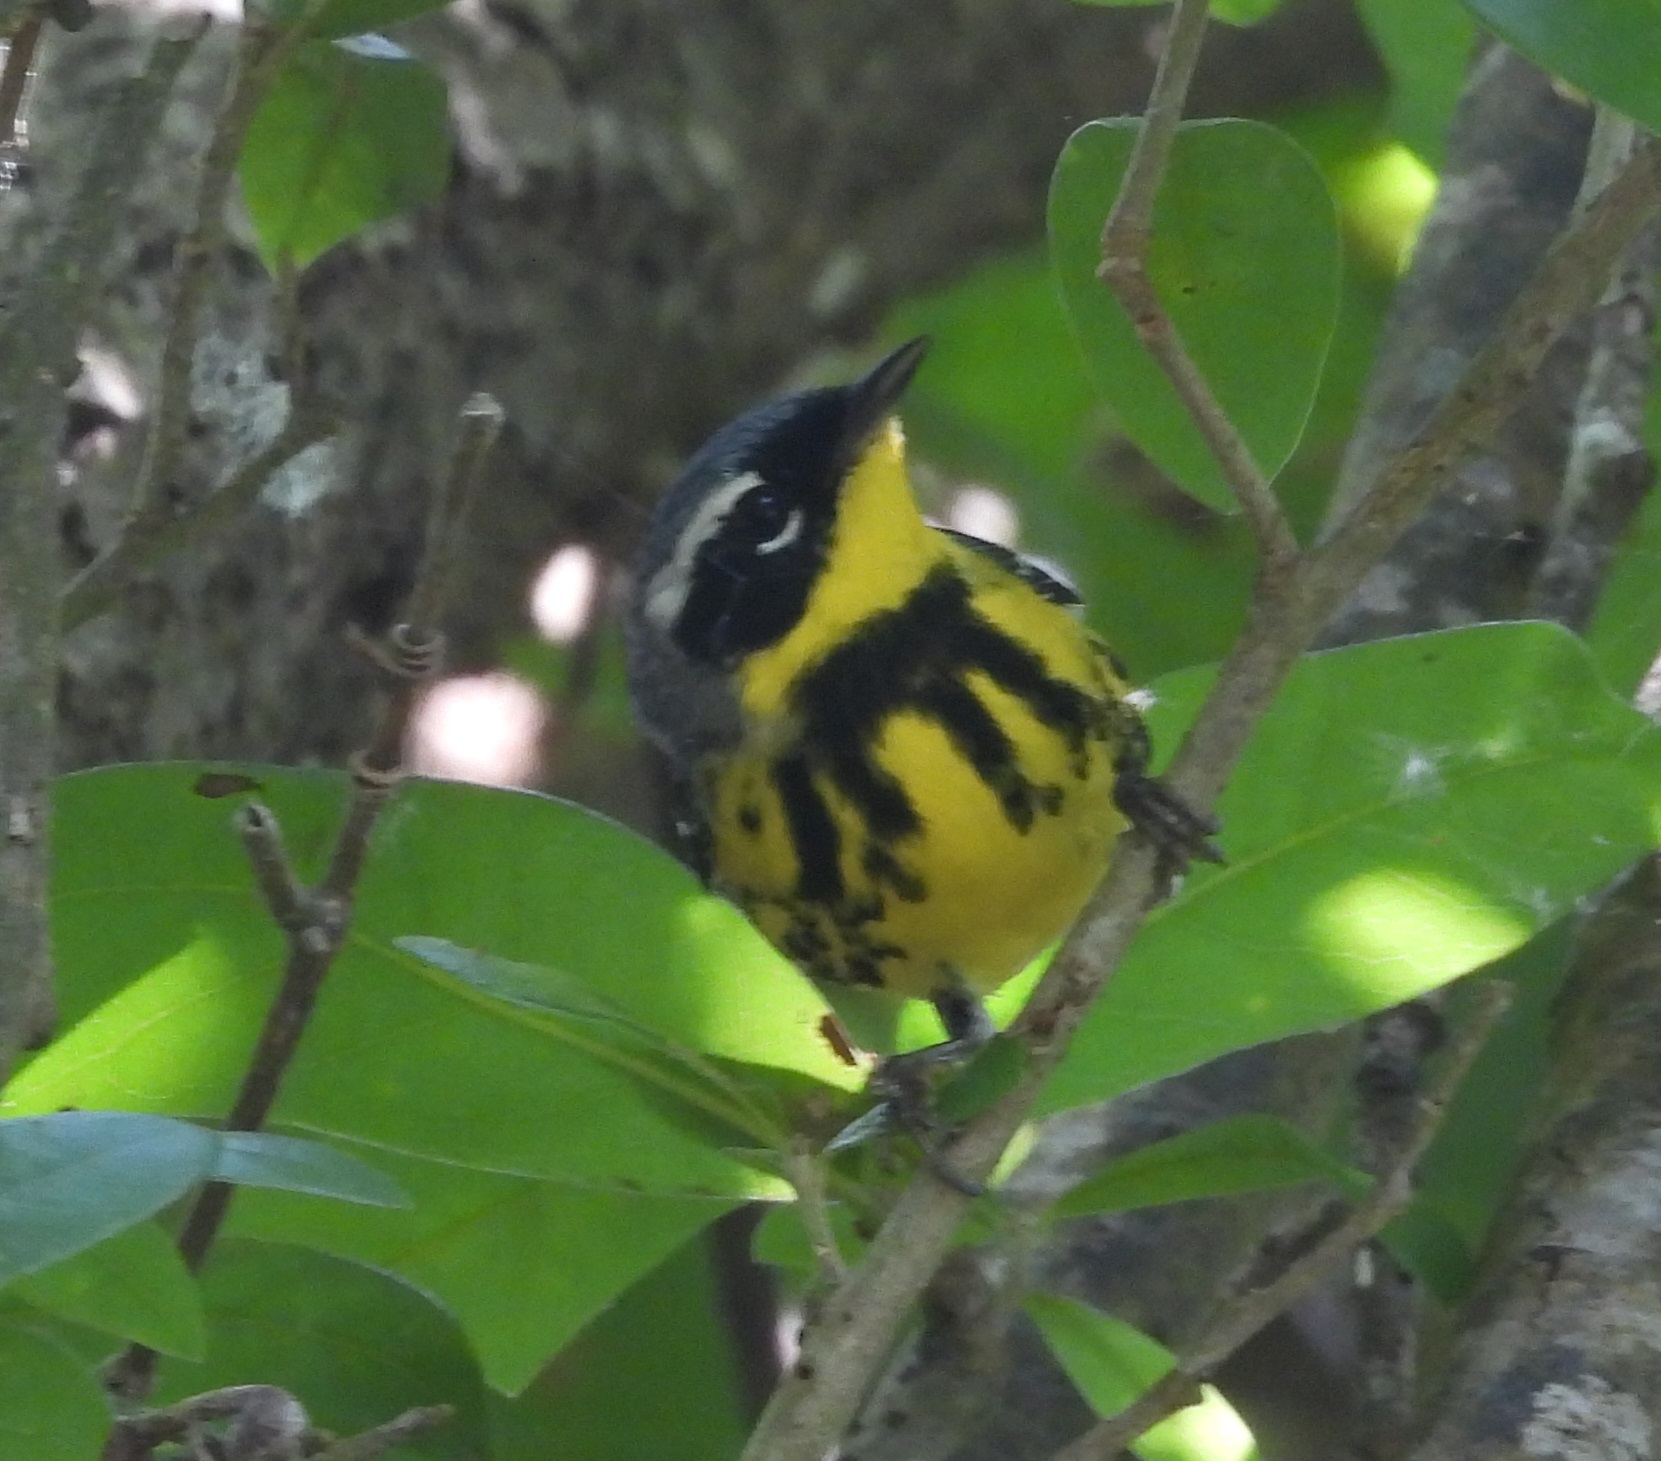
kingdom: Animalia
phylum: Chordata
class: Aves
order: Passeriformes
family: Parulidae
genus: Setophaga
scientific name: Setophaga magnolia
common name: Magnolia warbler
